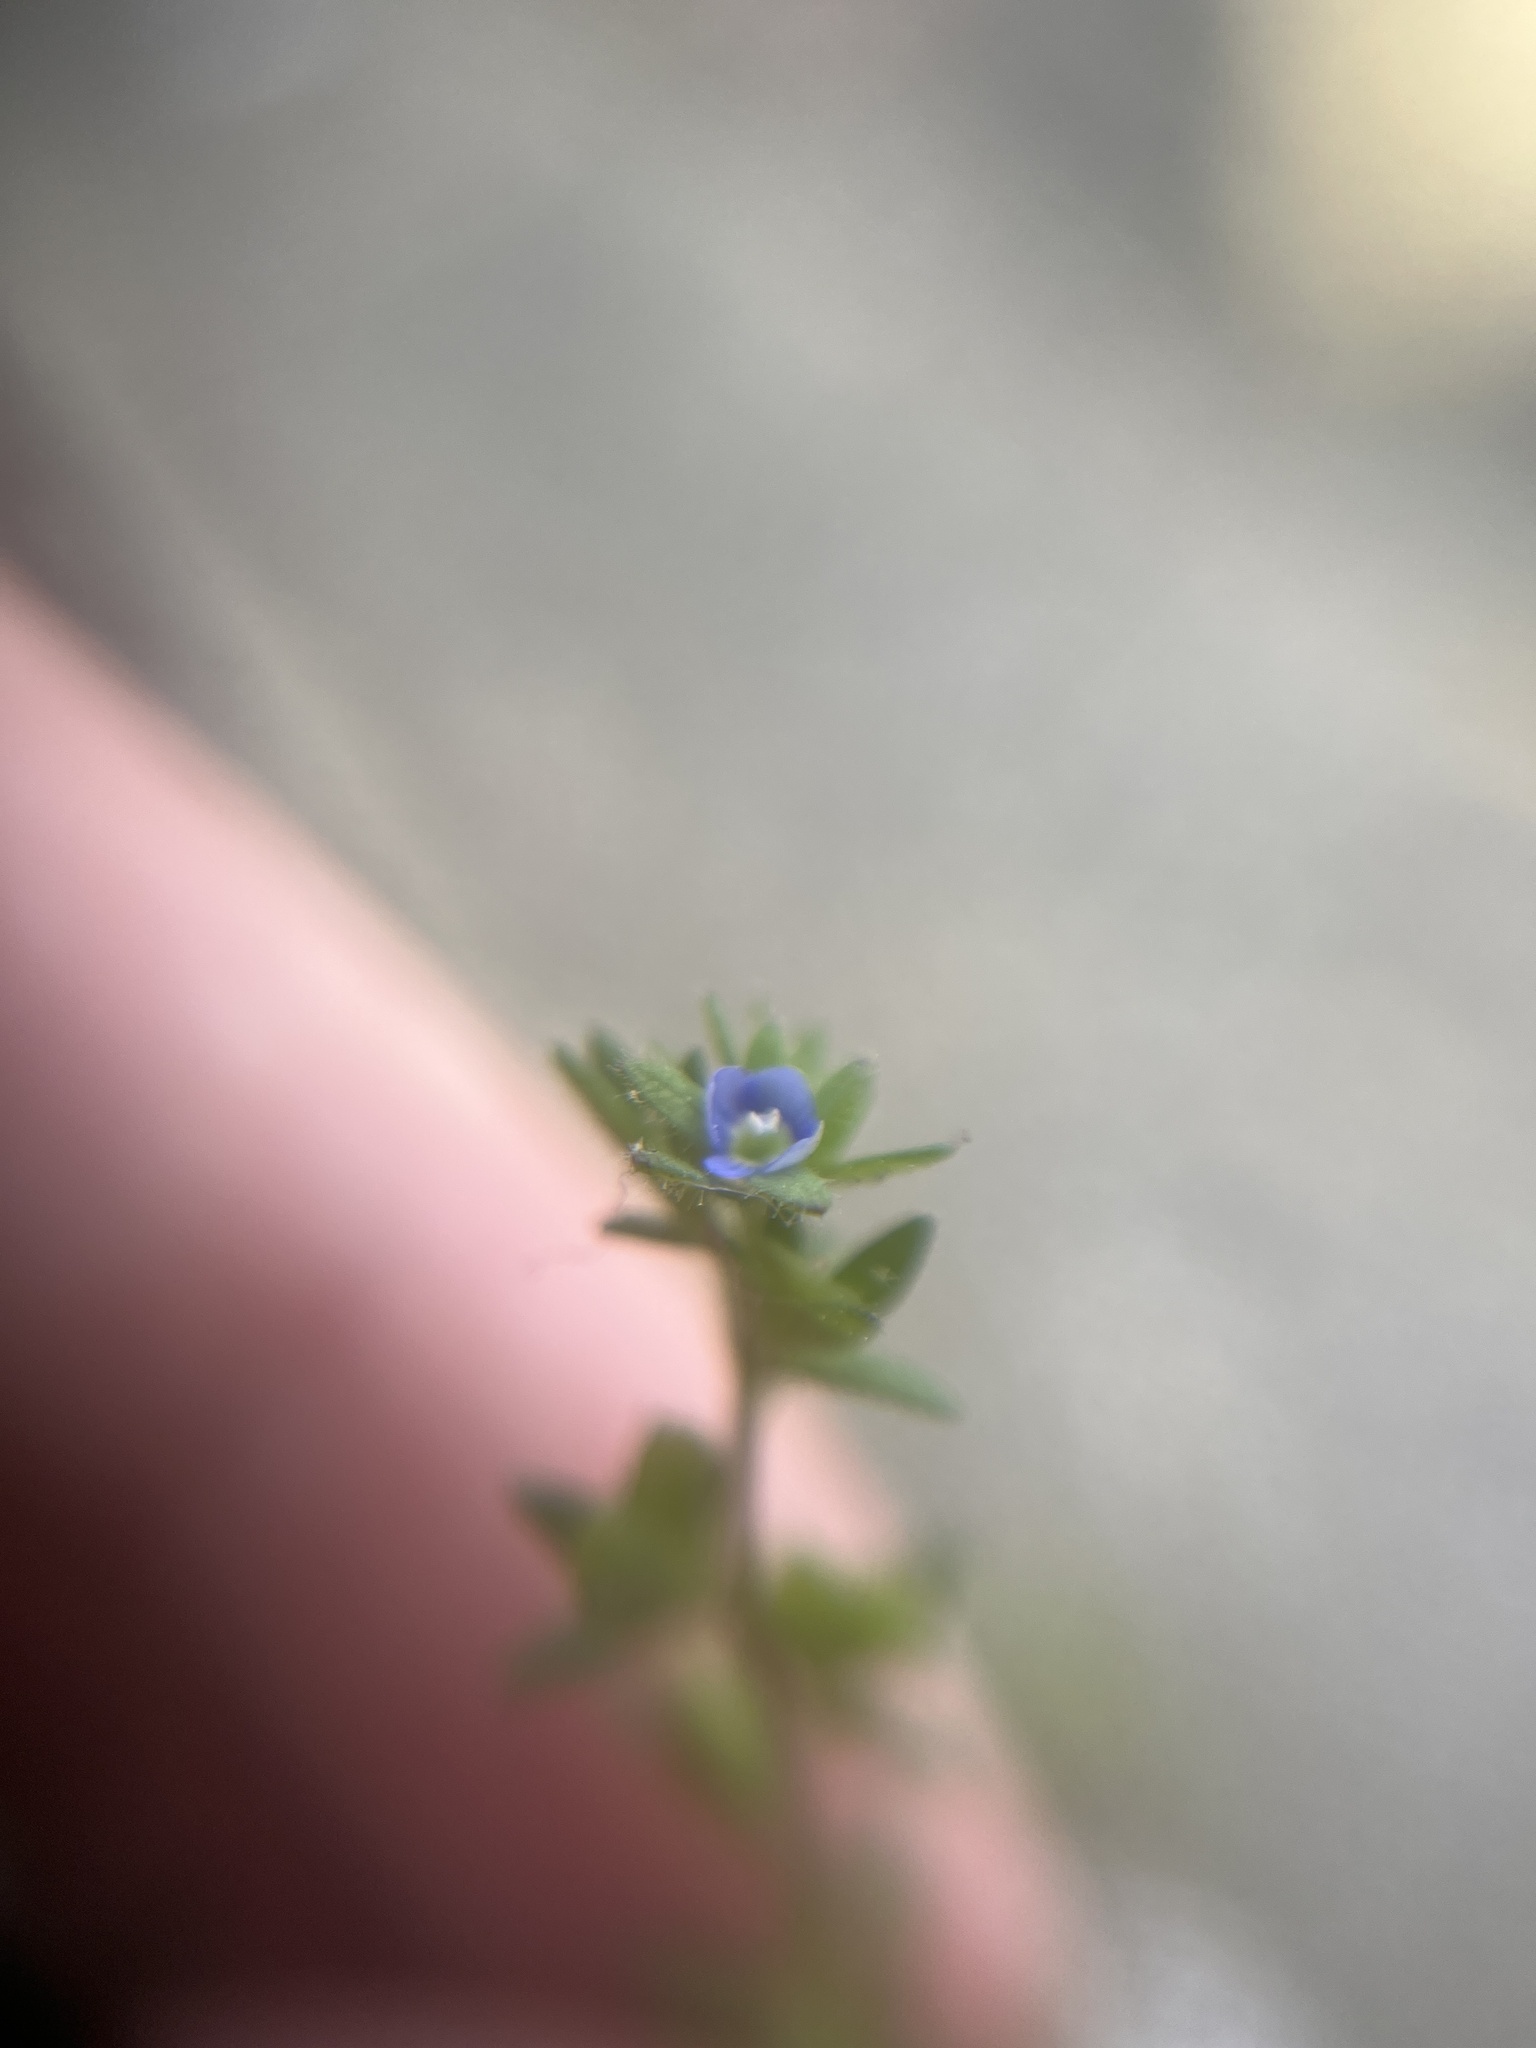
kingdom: Plantae
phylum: Tracheophyta
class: Magnoliopsida
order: Lamiales
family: Plantaginaceae
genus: Veronica
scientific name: Veronica arvensis
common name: Corn speedwell
